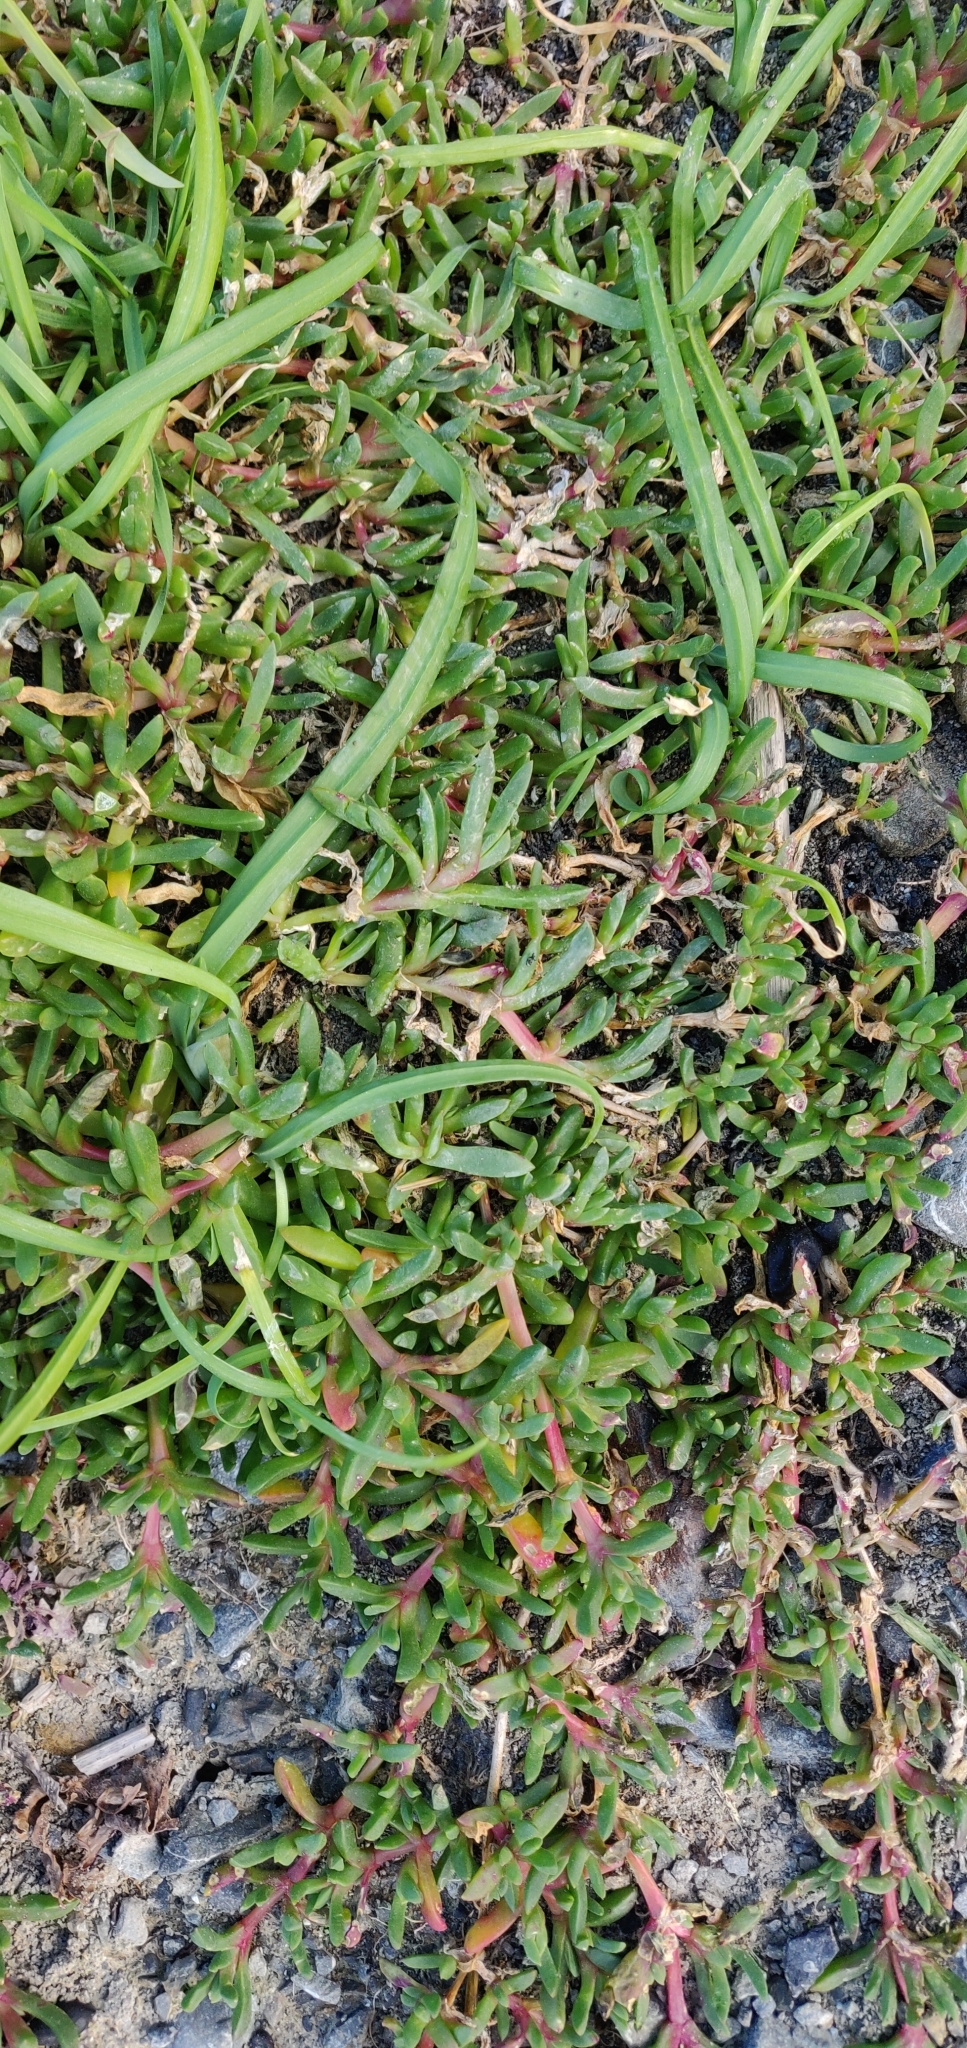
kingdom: Plantae
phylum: Tracheophyta
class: Magnoliopsida
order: Caryophyllales
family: Aizoaceae
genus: Disphyma
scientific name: Disphyma australe
